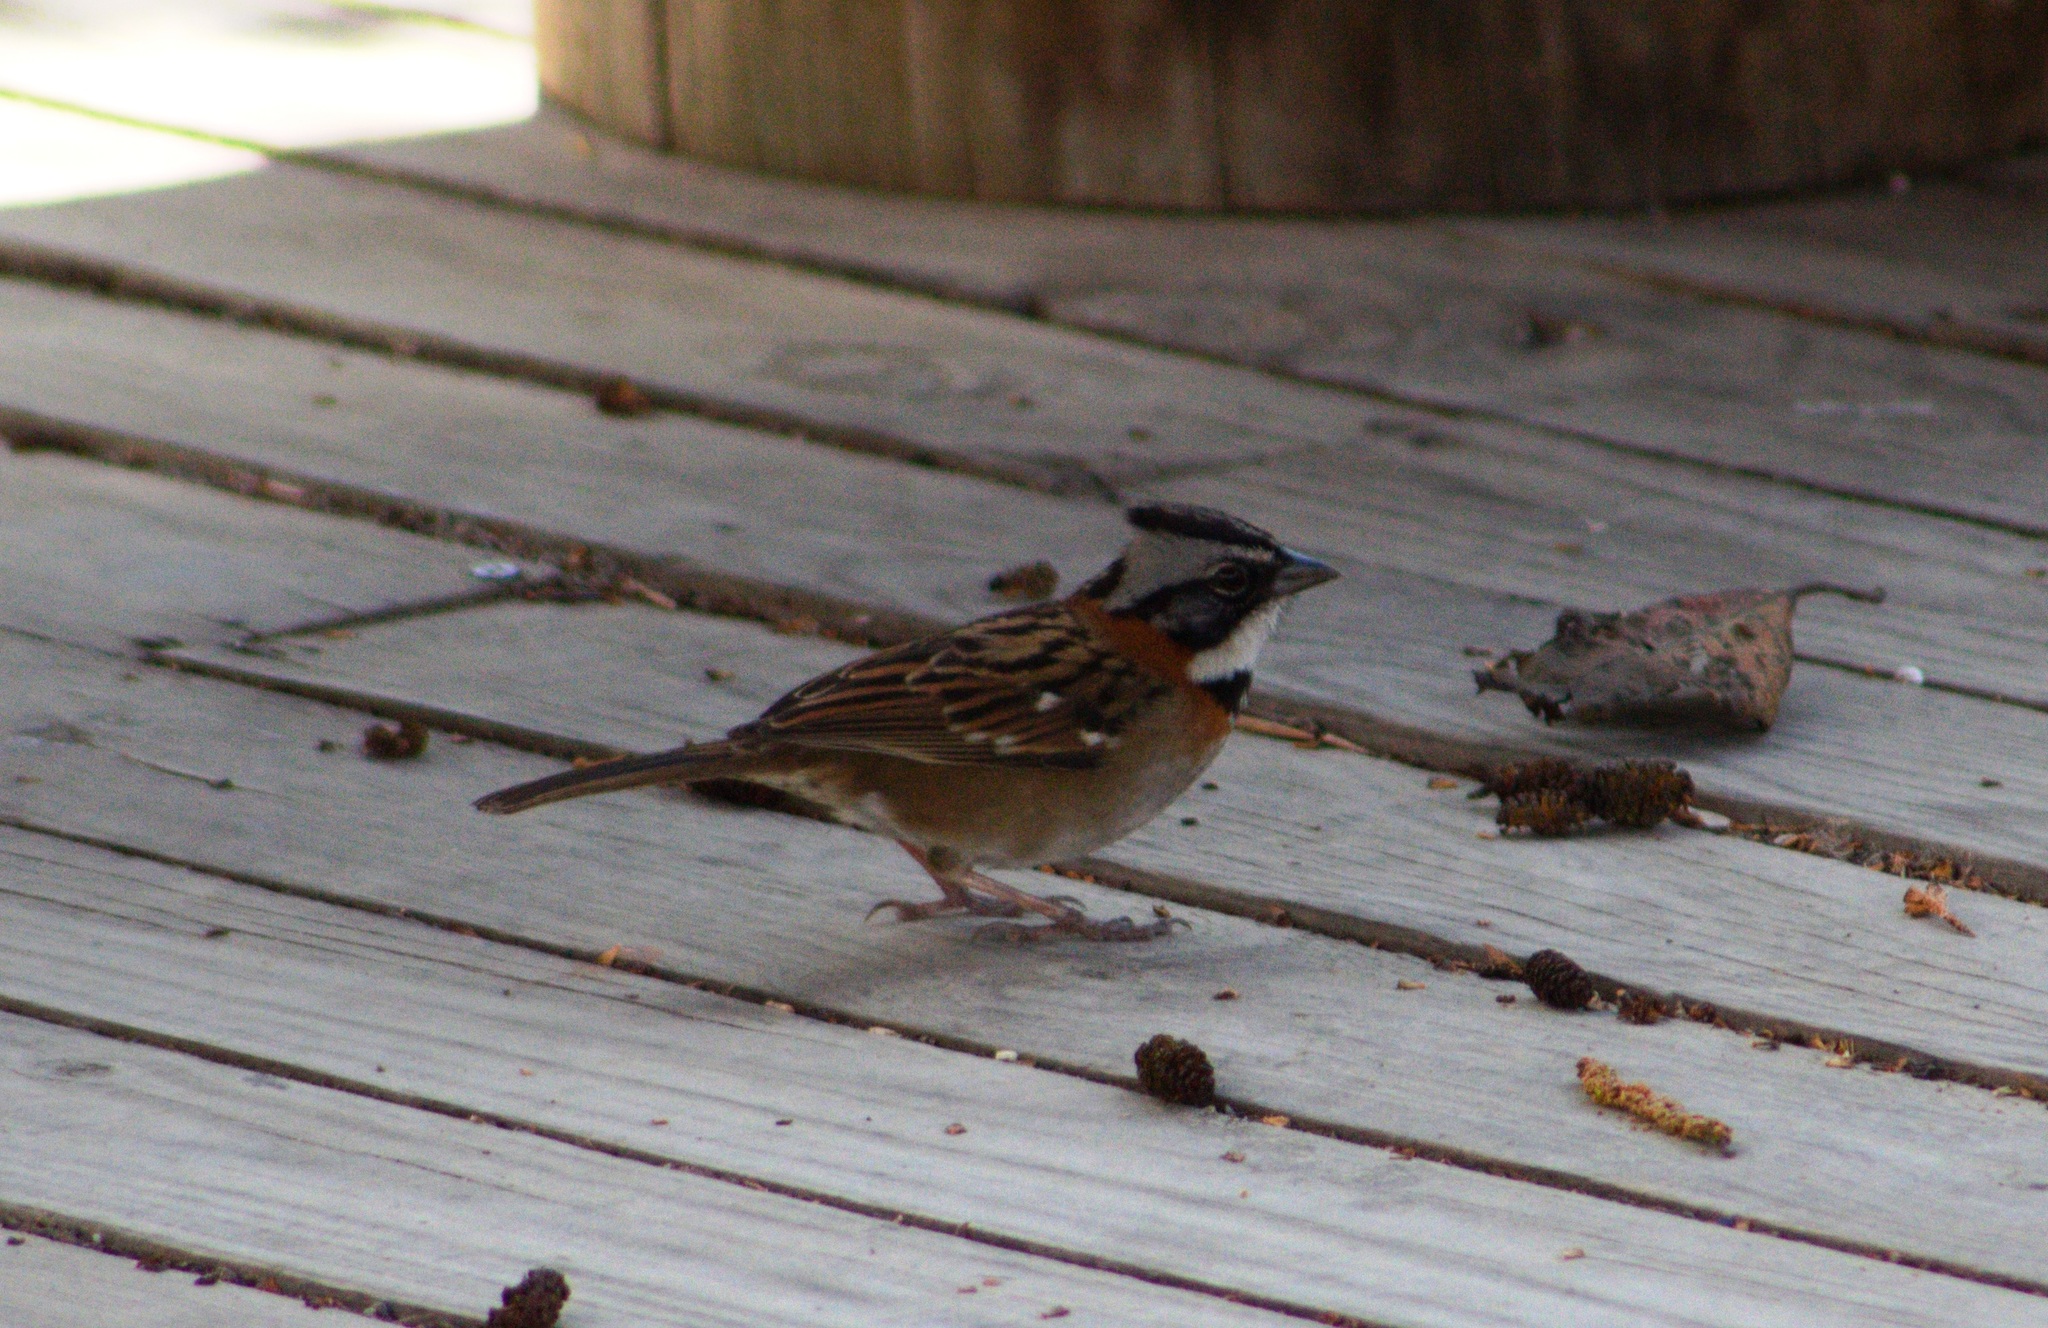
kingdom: Animalia
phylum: Chordata
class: Aves
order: Passeriformes
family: Passerellidae
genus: Zonotrichia
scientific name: Zonotrichia capensis
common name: Rufous-collared sparrow
